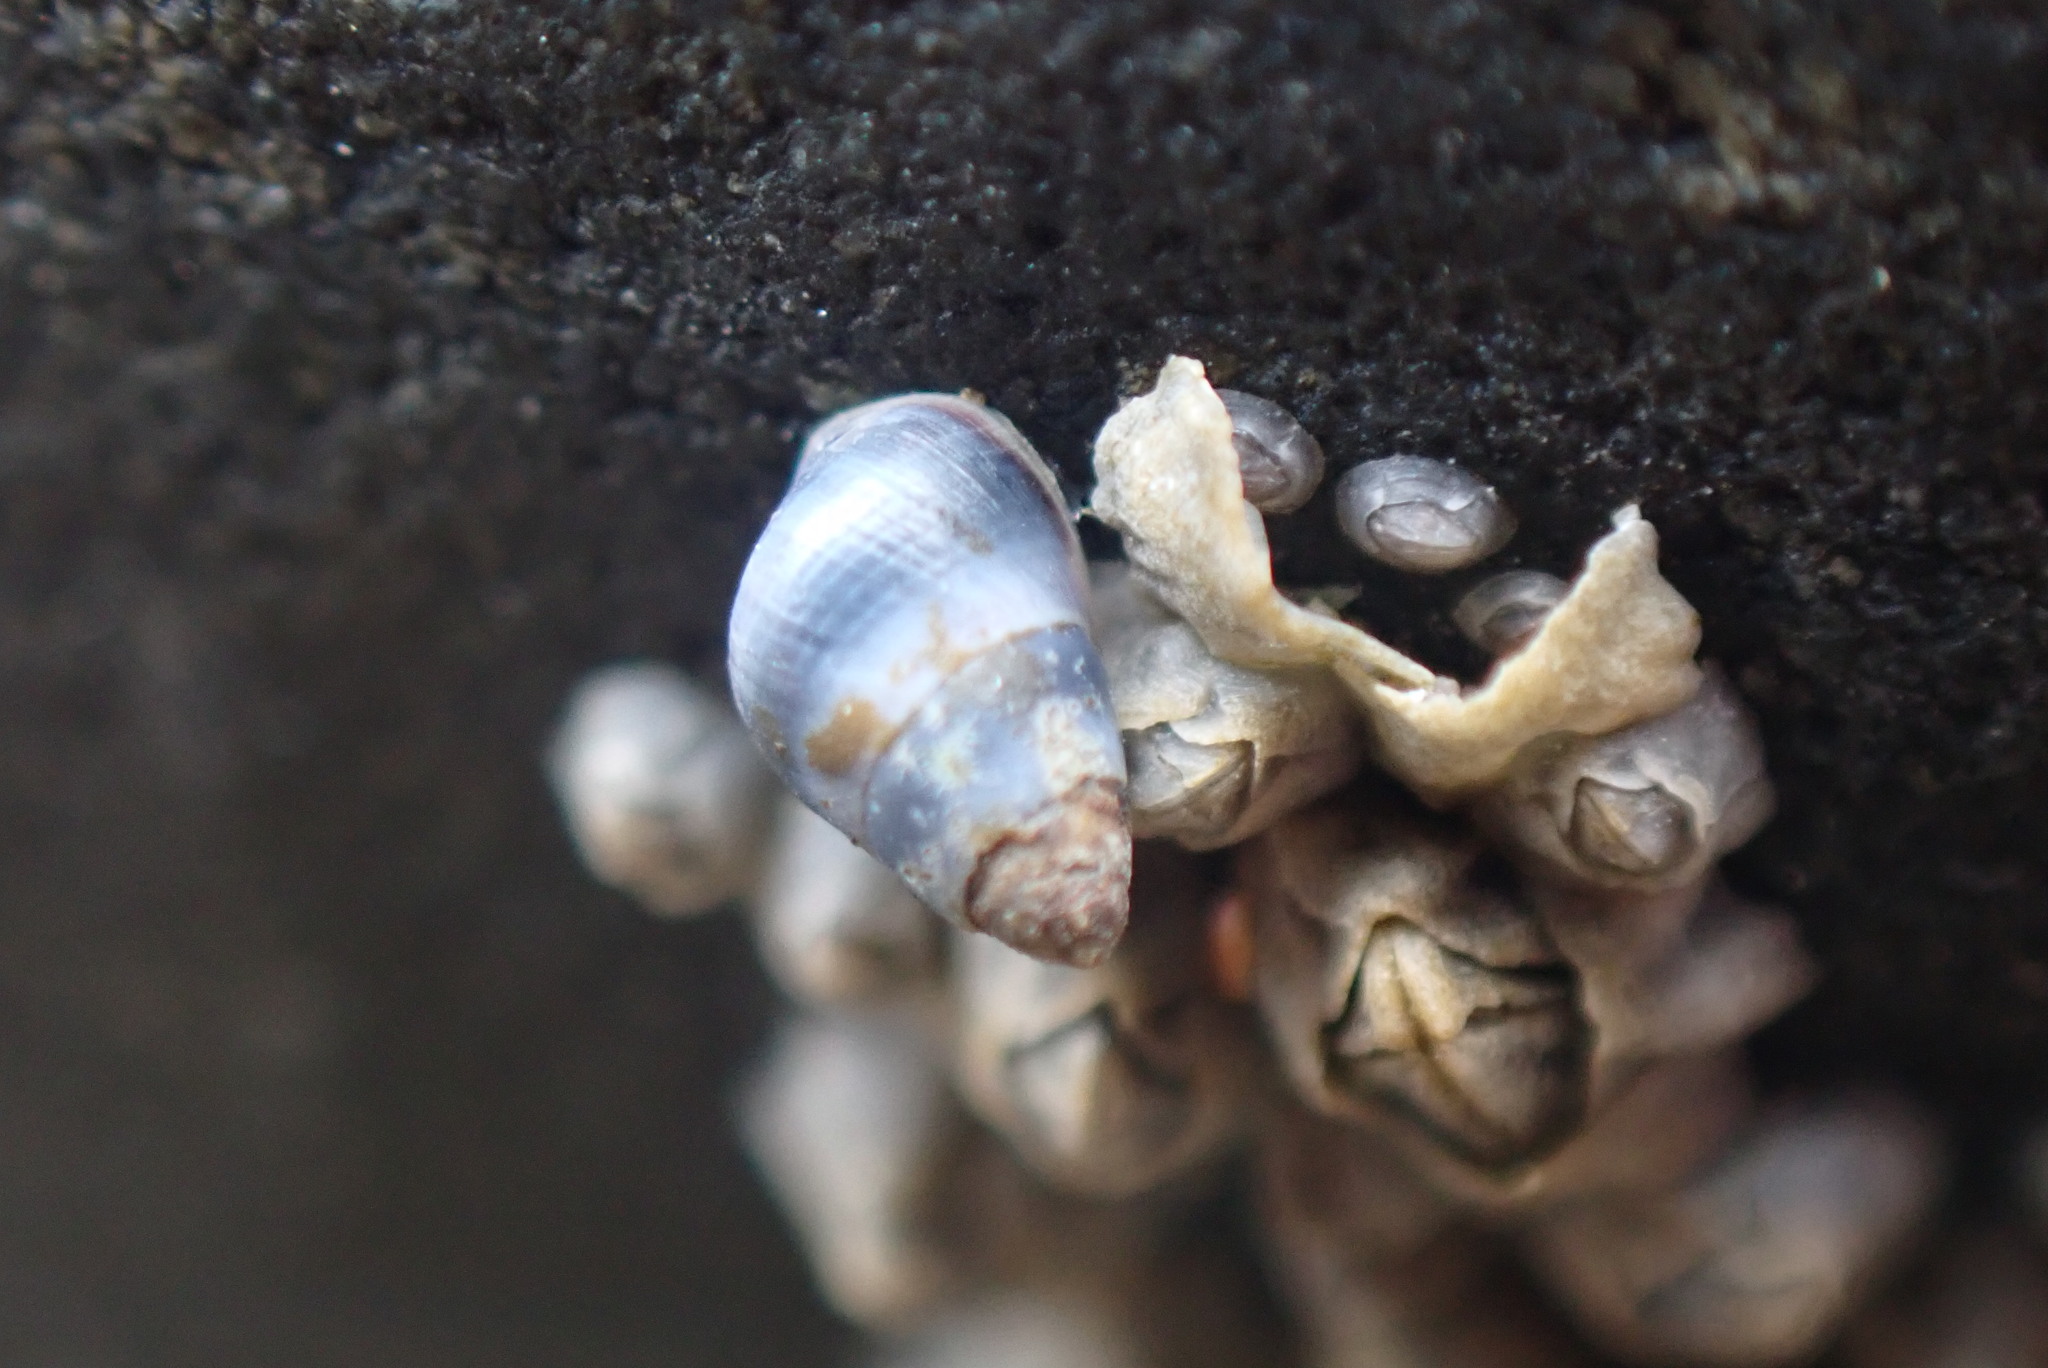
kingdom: Animalia
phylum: Mollusca
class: Gastropoda
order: Littorinimorpha
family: Littorinidae
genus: Austrolittorina
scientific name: Austrolittorina antipodum
